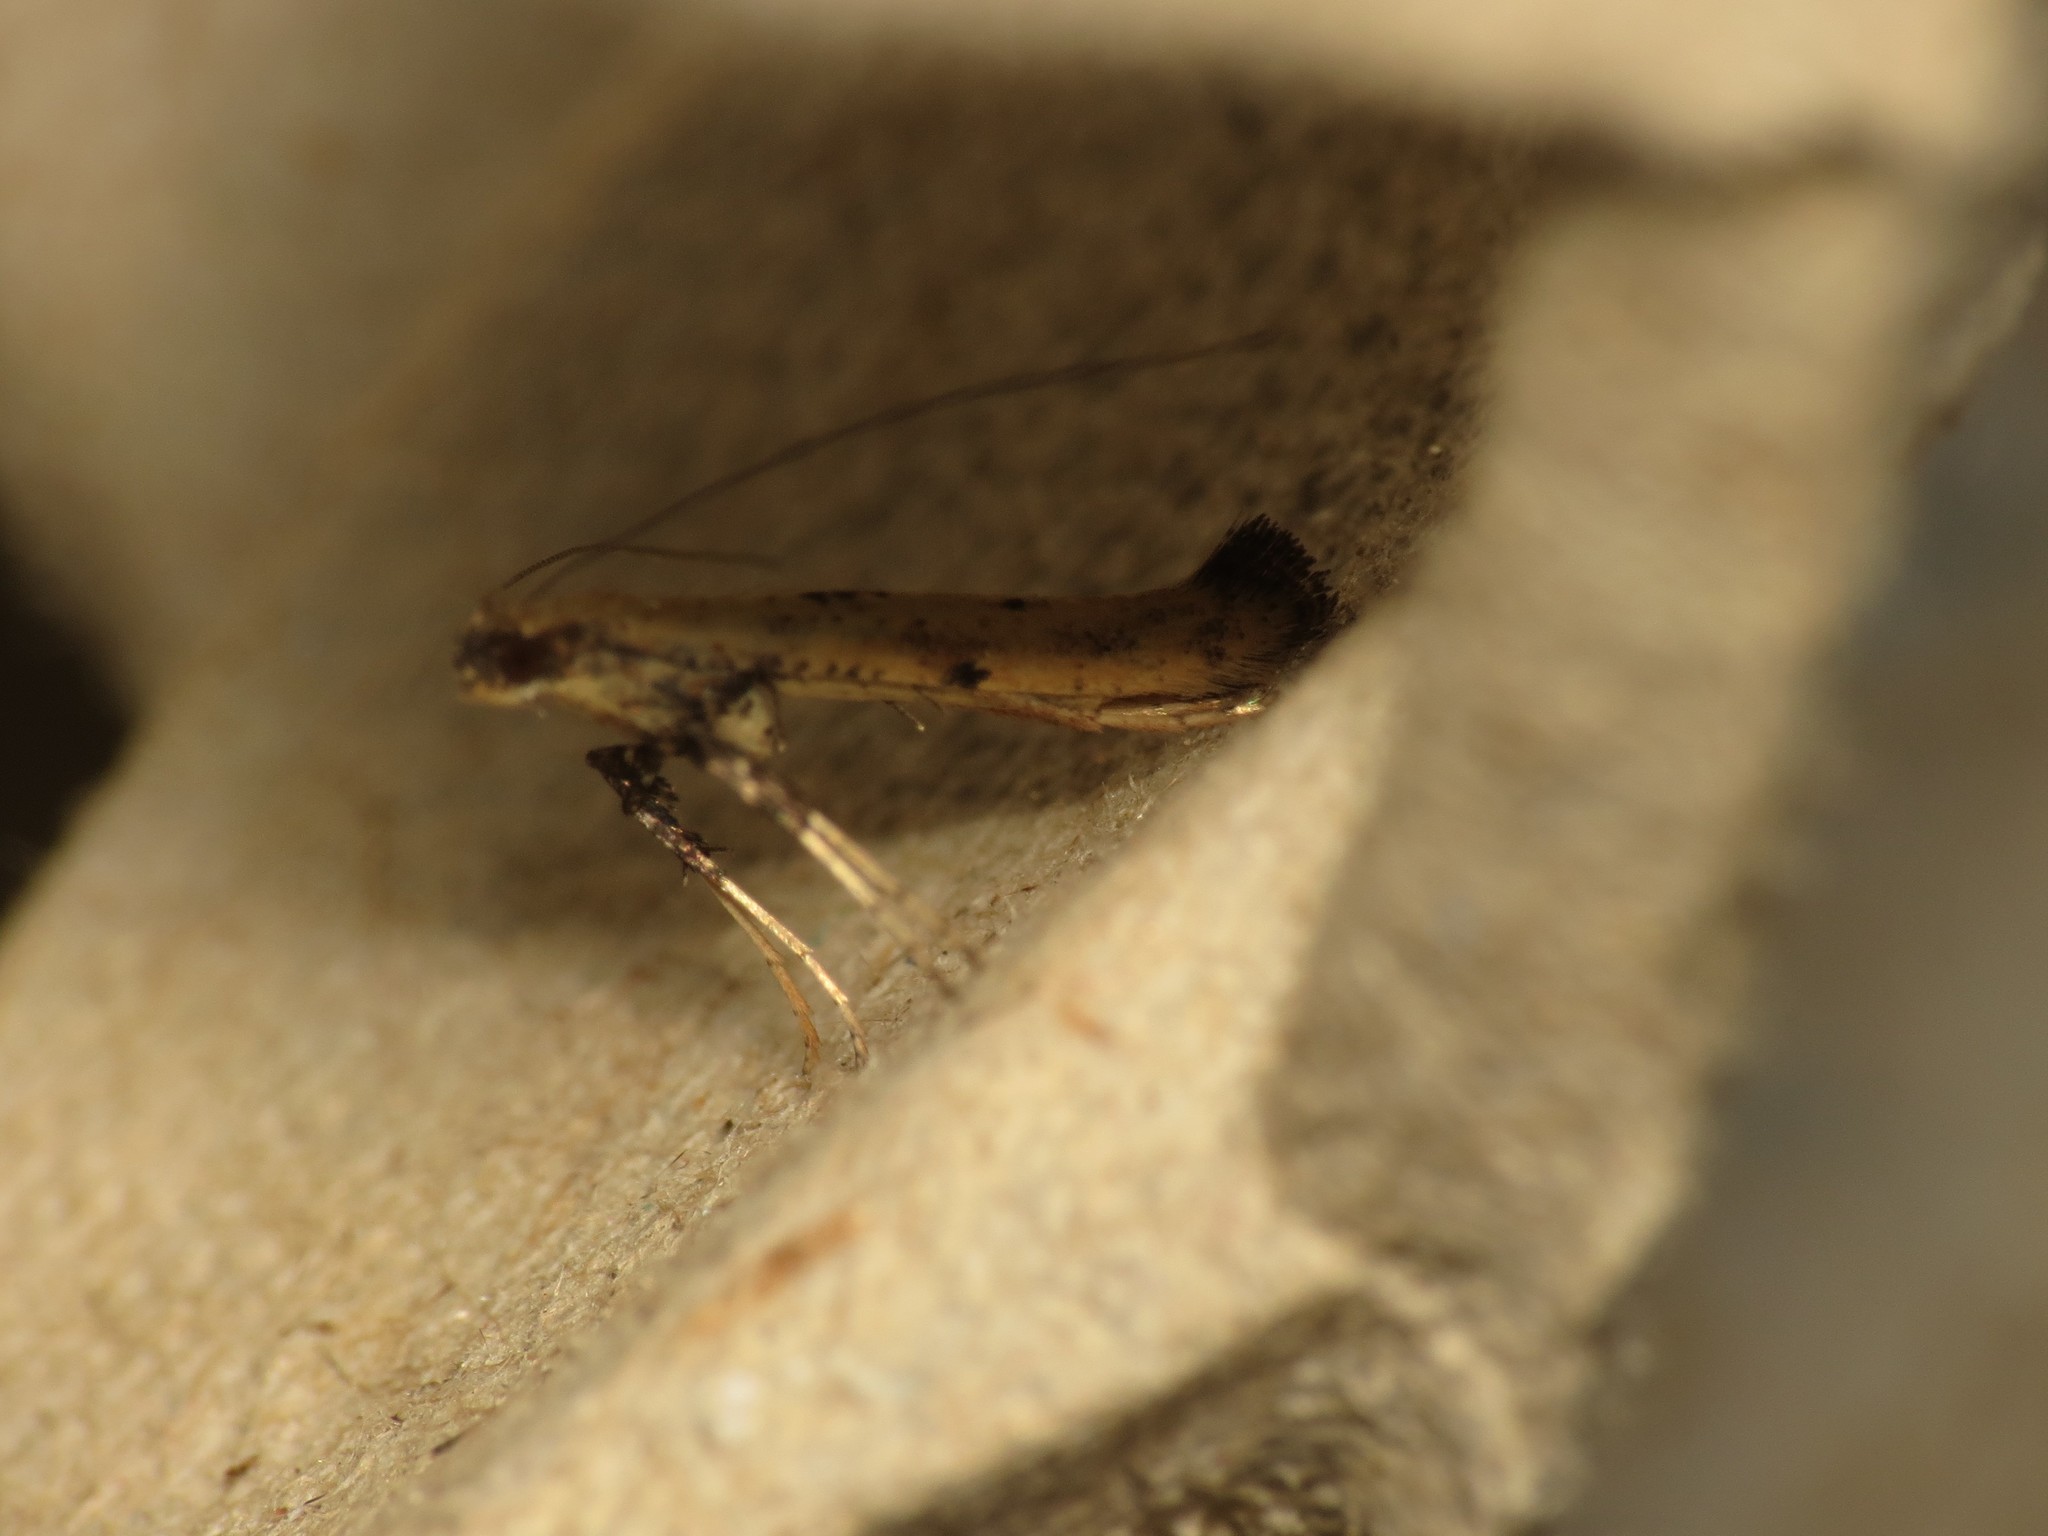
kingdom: Animalia
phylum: Arthropoda
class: Insecta
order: Lepidoptera
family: Gracillariidae
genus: Caloptilia
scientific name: Caloptilia populetorum
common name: Clouded slender
